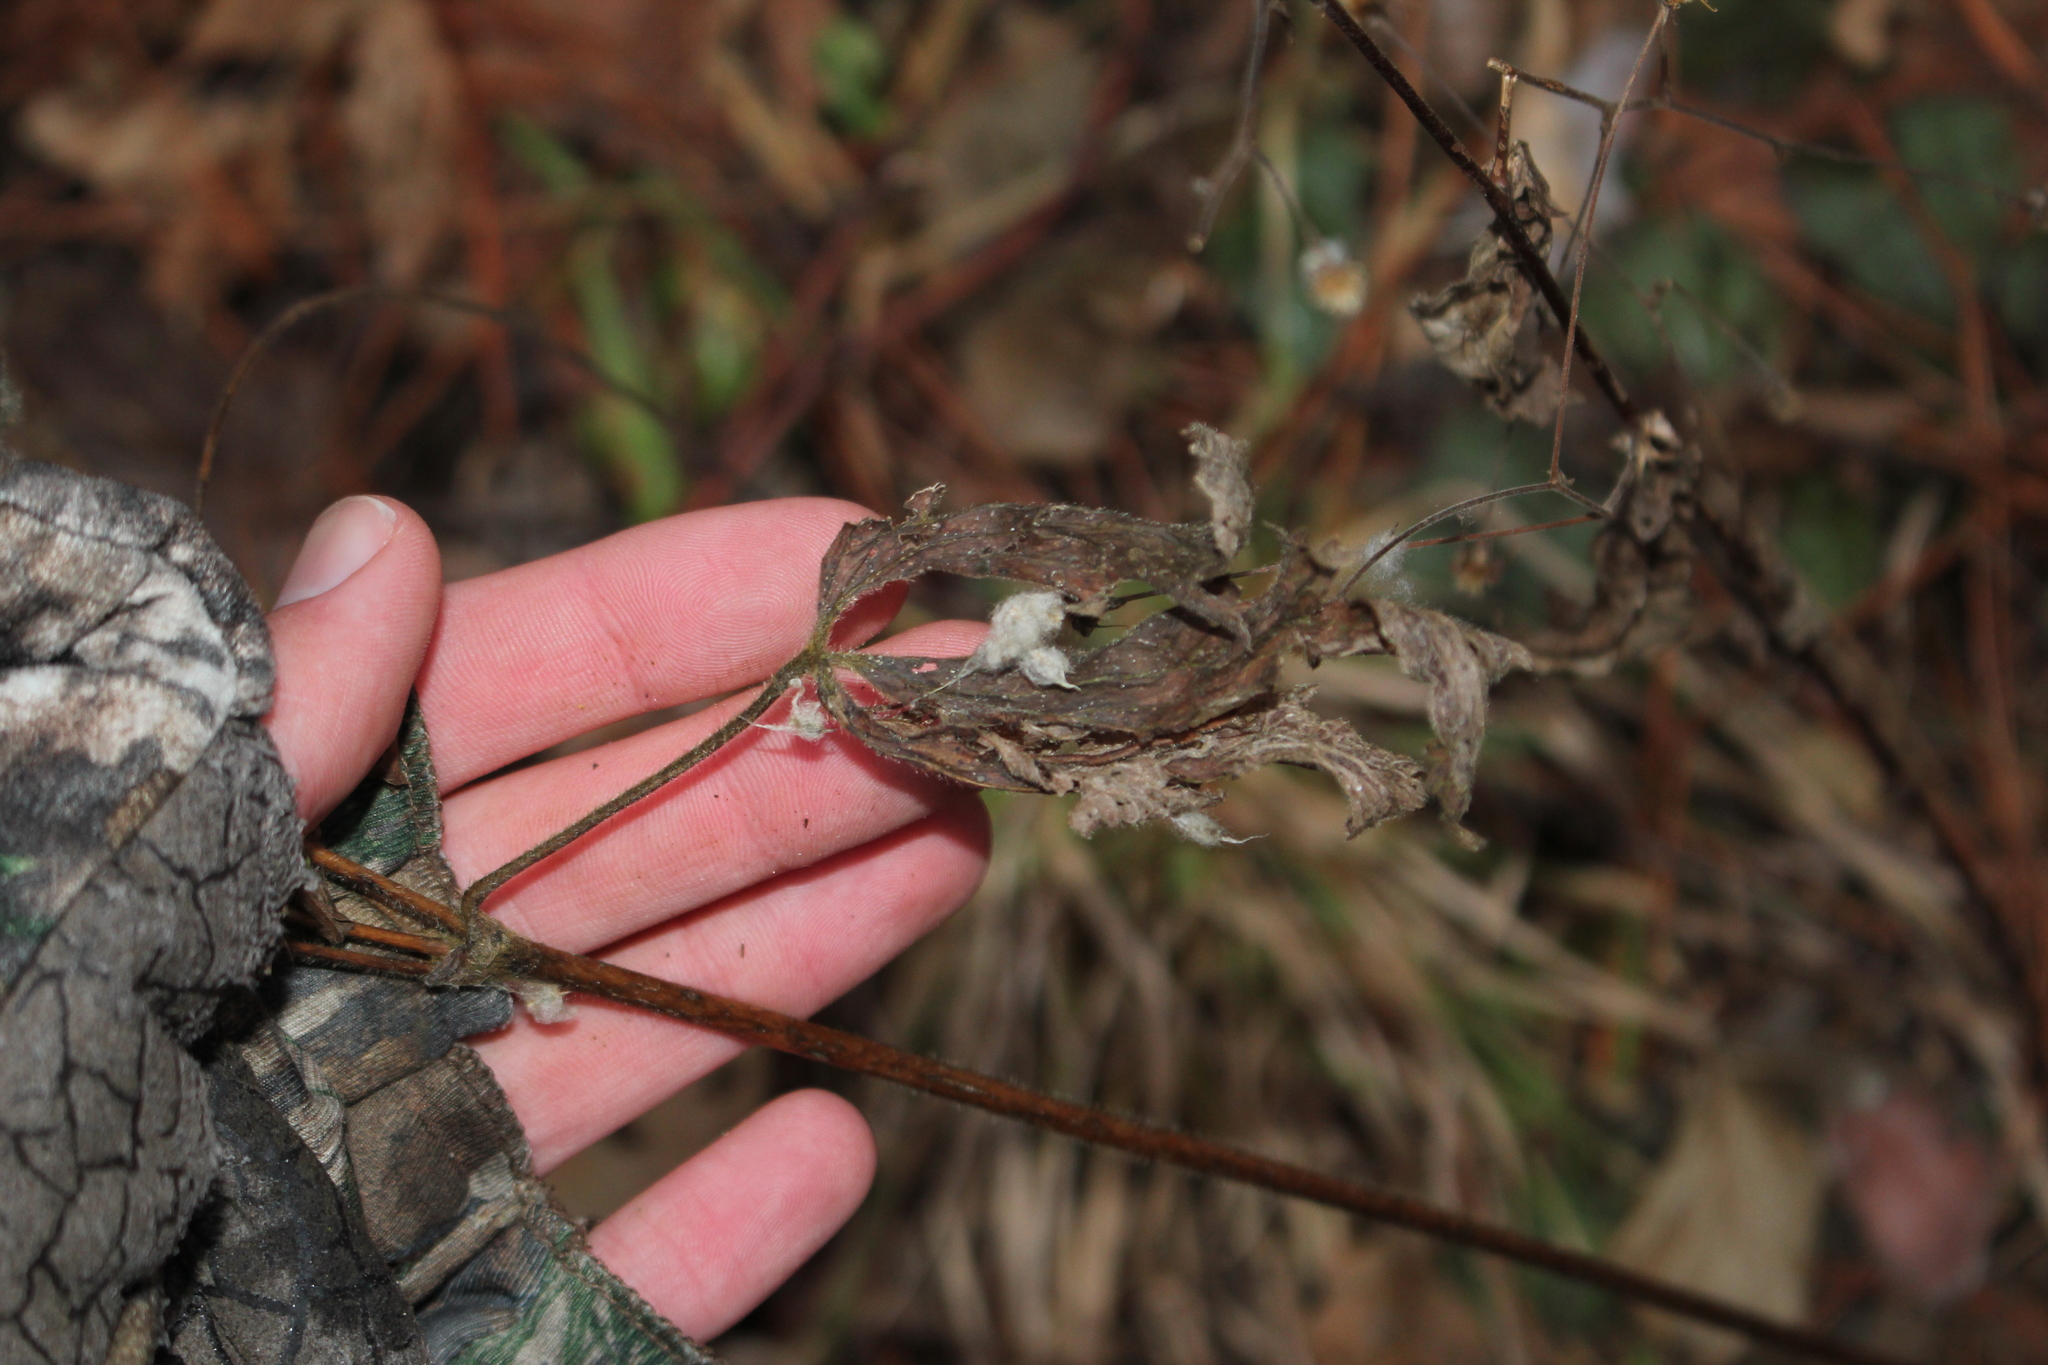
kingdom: Plantae
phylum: Tracheophyta
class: Magnoliopsida
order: Ranunculales
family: Ranunculaceae
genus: Anemone
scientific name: Anemone virginiana
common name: Tall anemone
